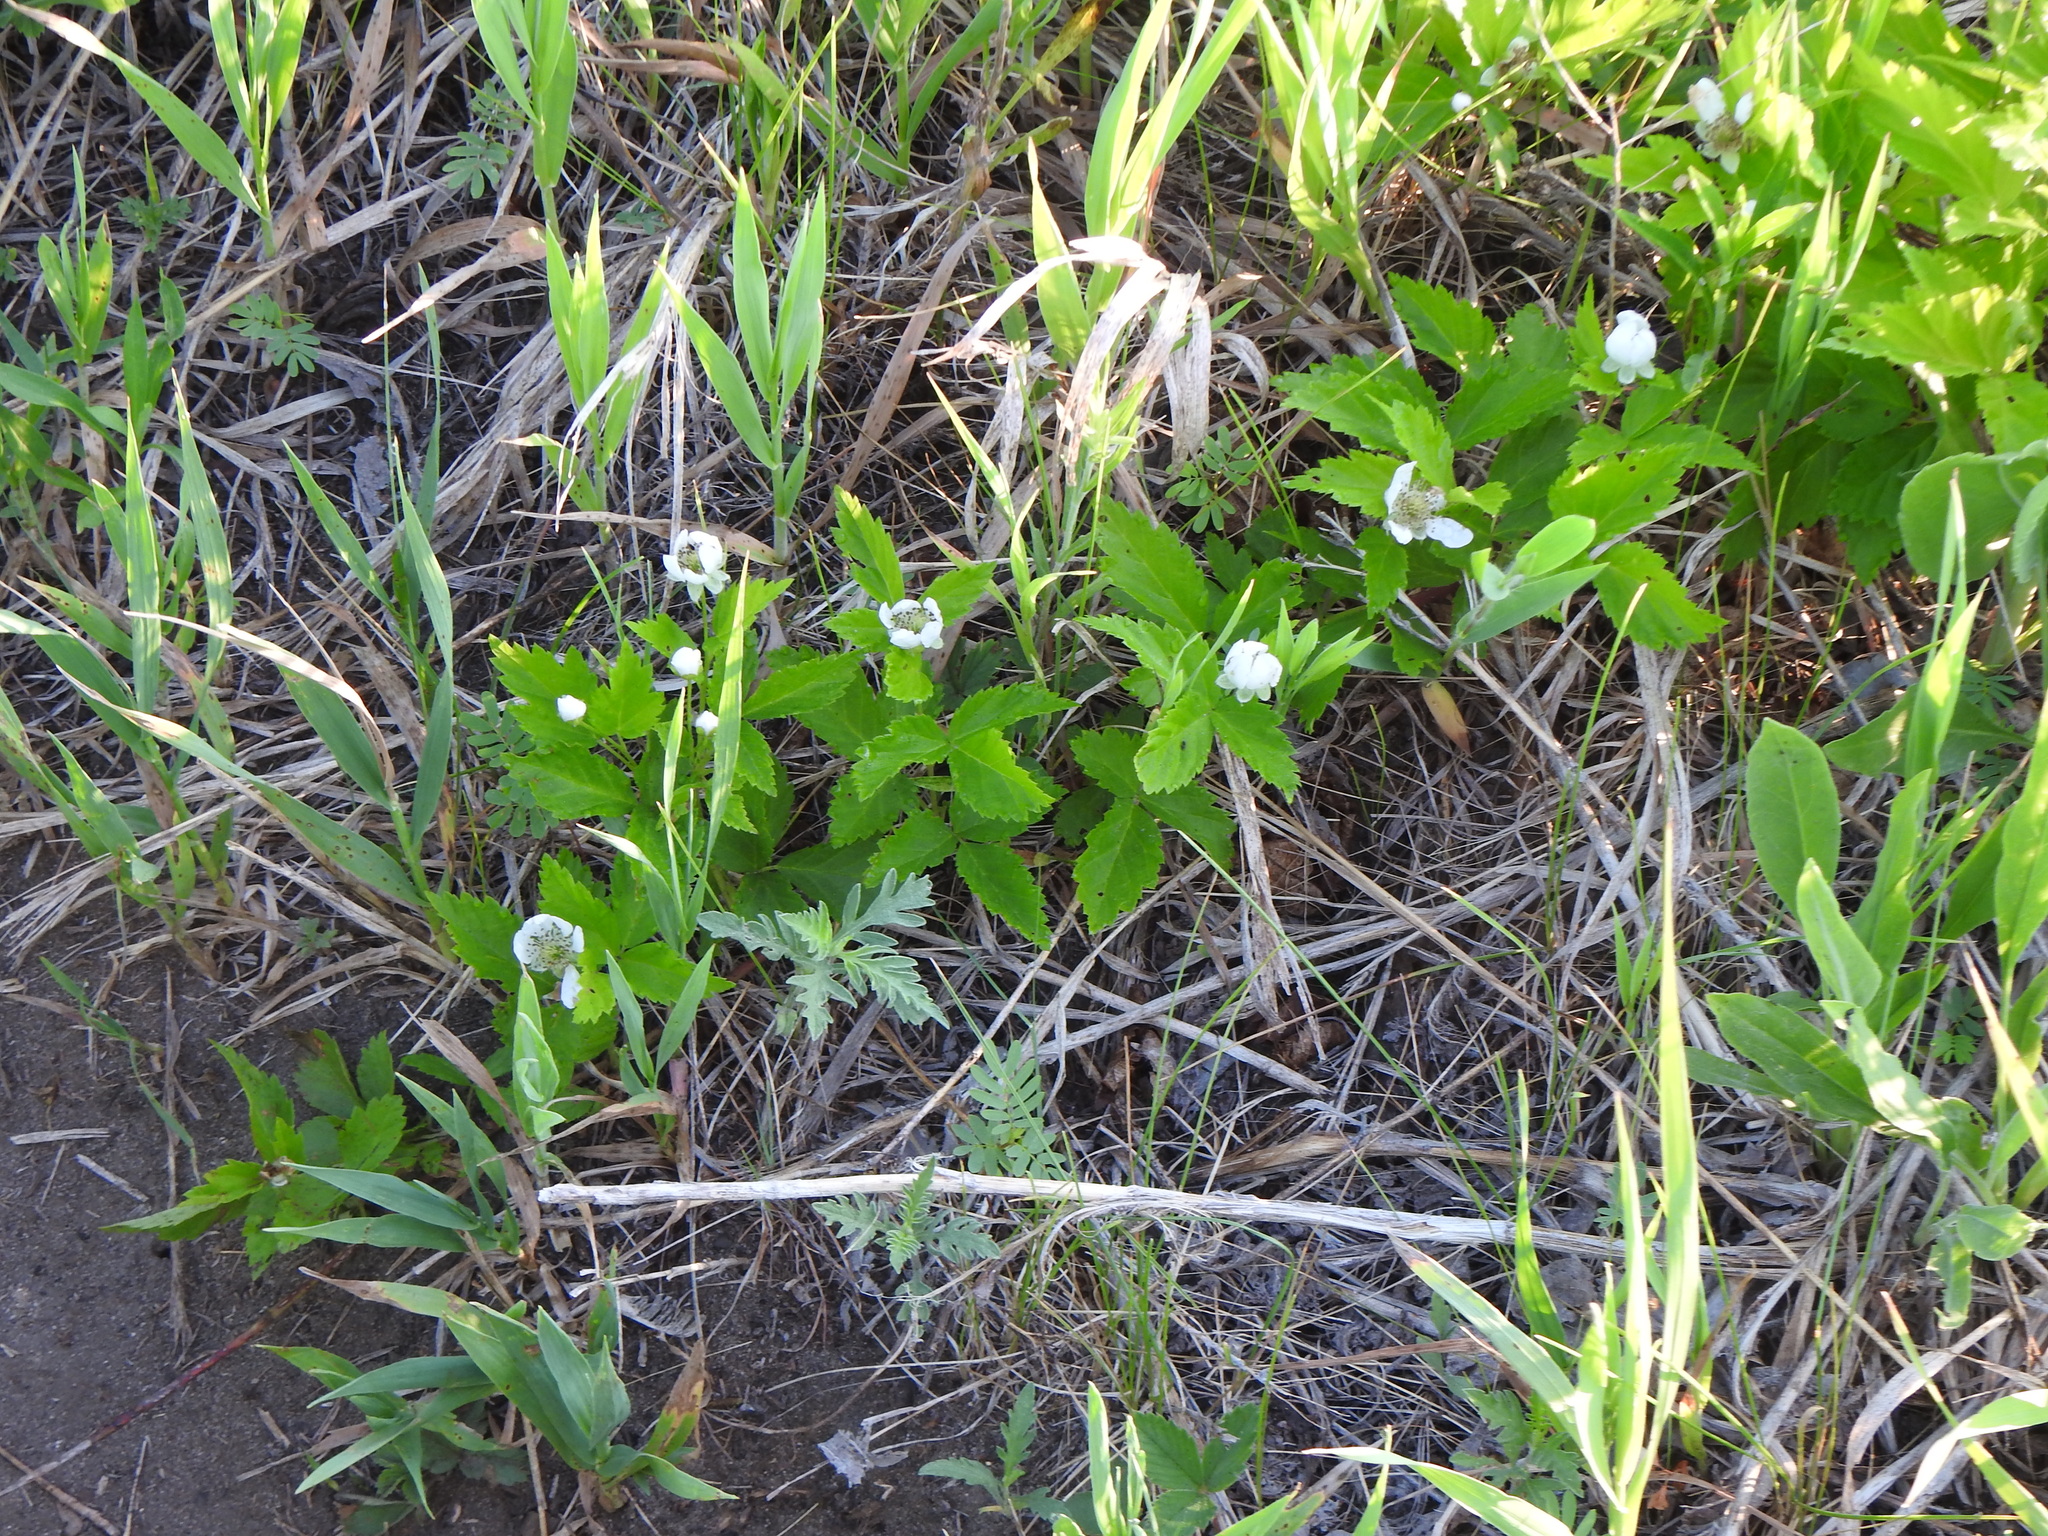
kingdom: Plantae
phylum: Tracheophyta
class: Magnoliopsida
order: Rosales
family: Rosaceae
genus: Rubus
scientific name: Rubus multifer
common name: Kinnickinnick dewberry
